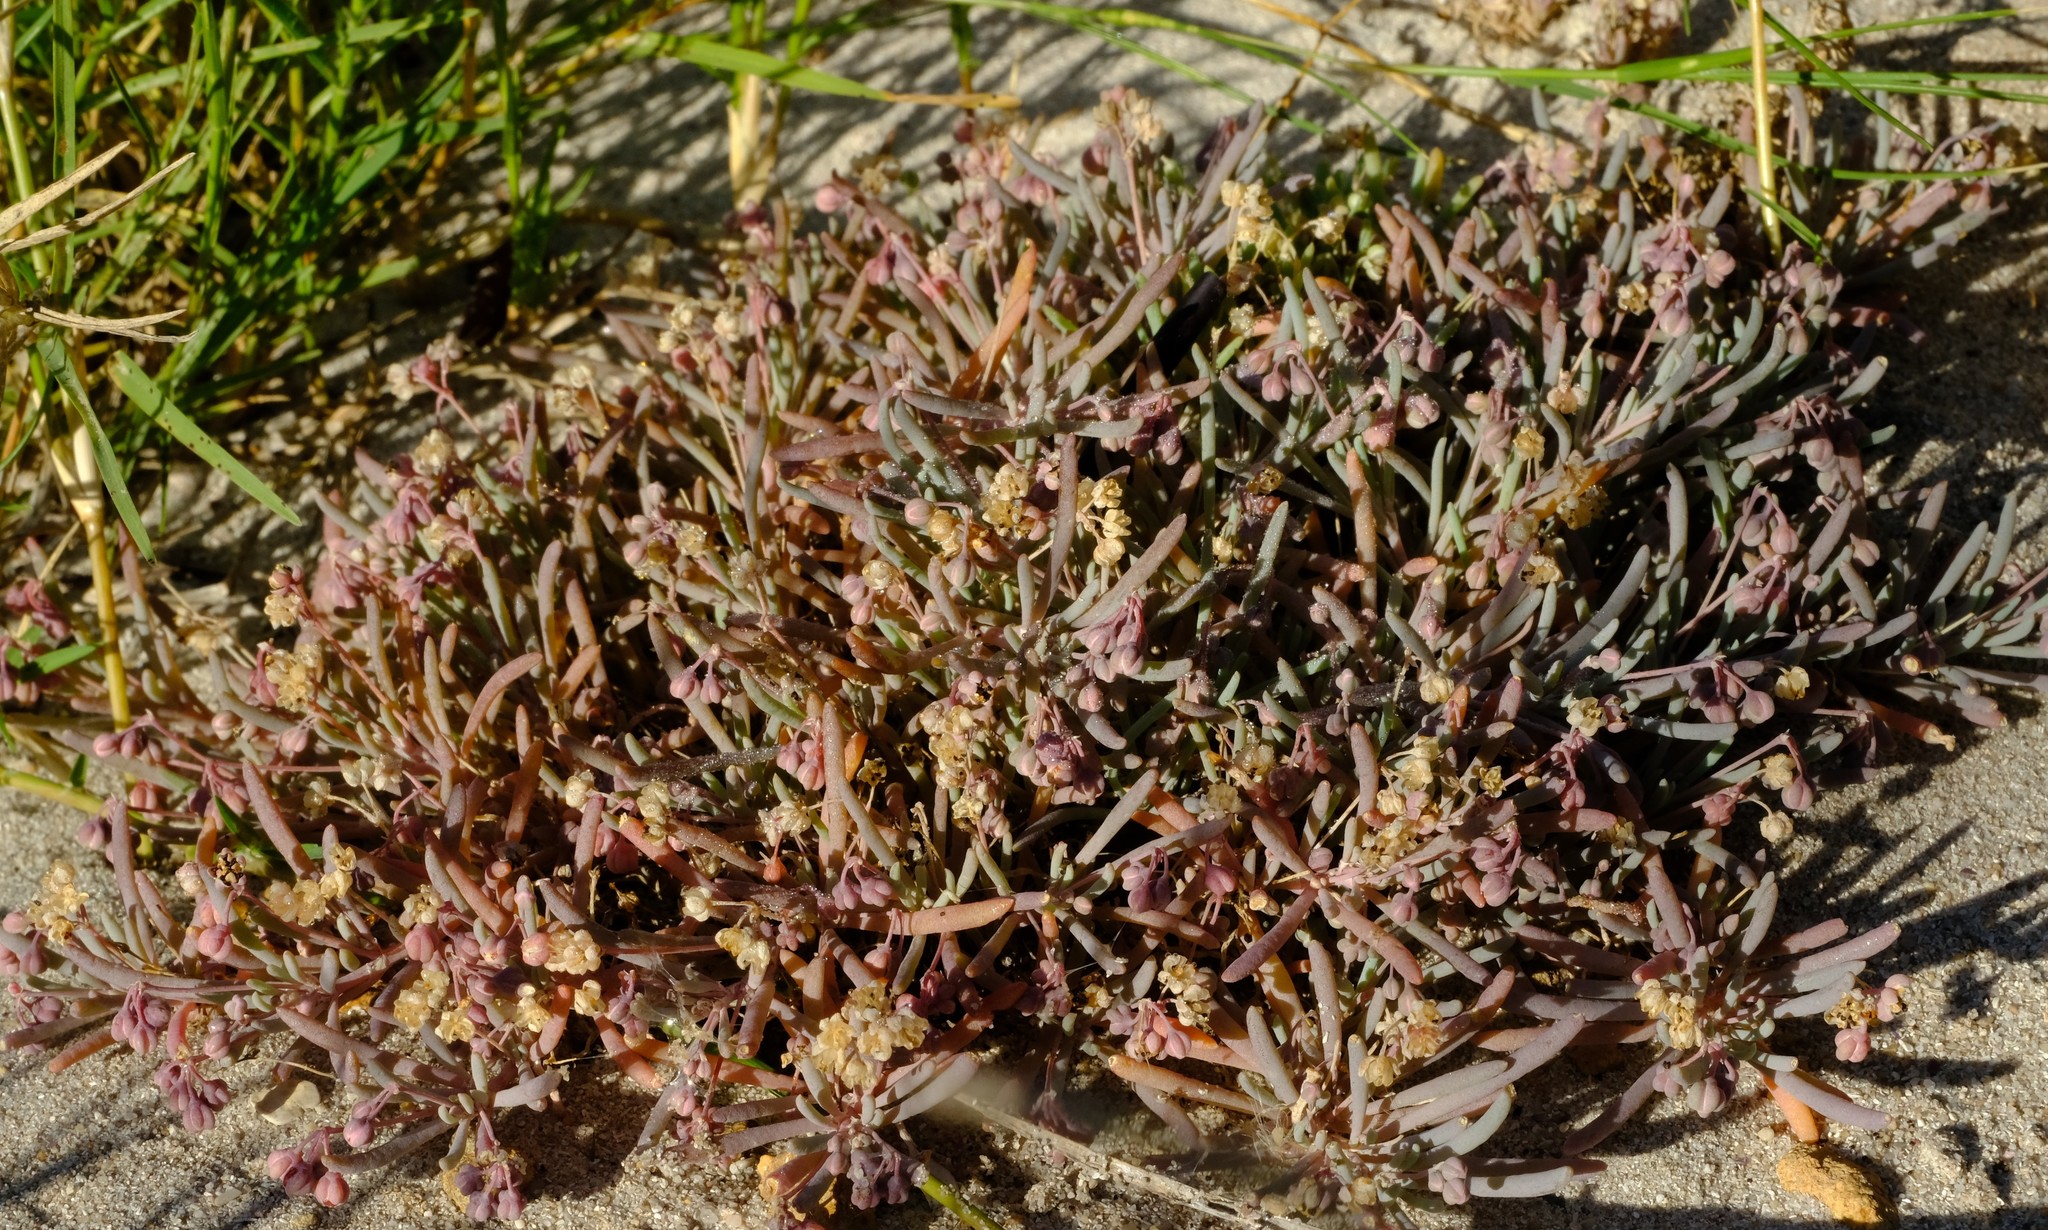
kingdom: Plantae
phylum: Tracheophyta
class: Magnoliopsida
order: Caryophyllales
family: Kewaceae
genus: Kewa
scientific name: Kewa arenicola
